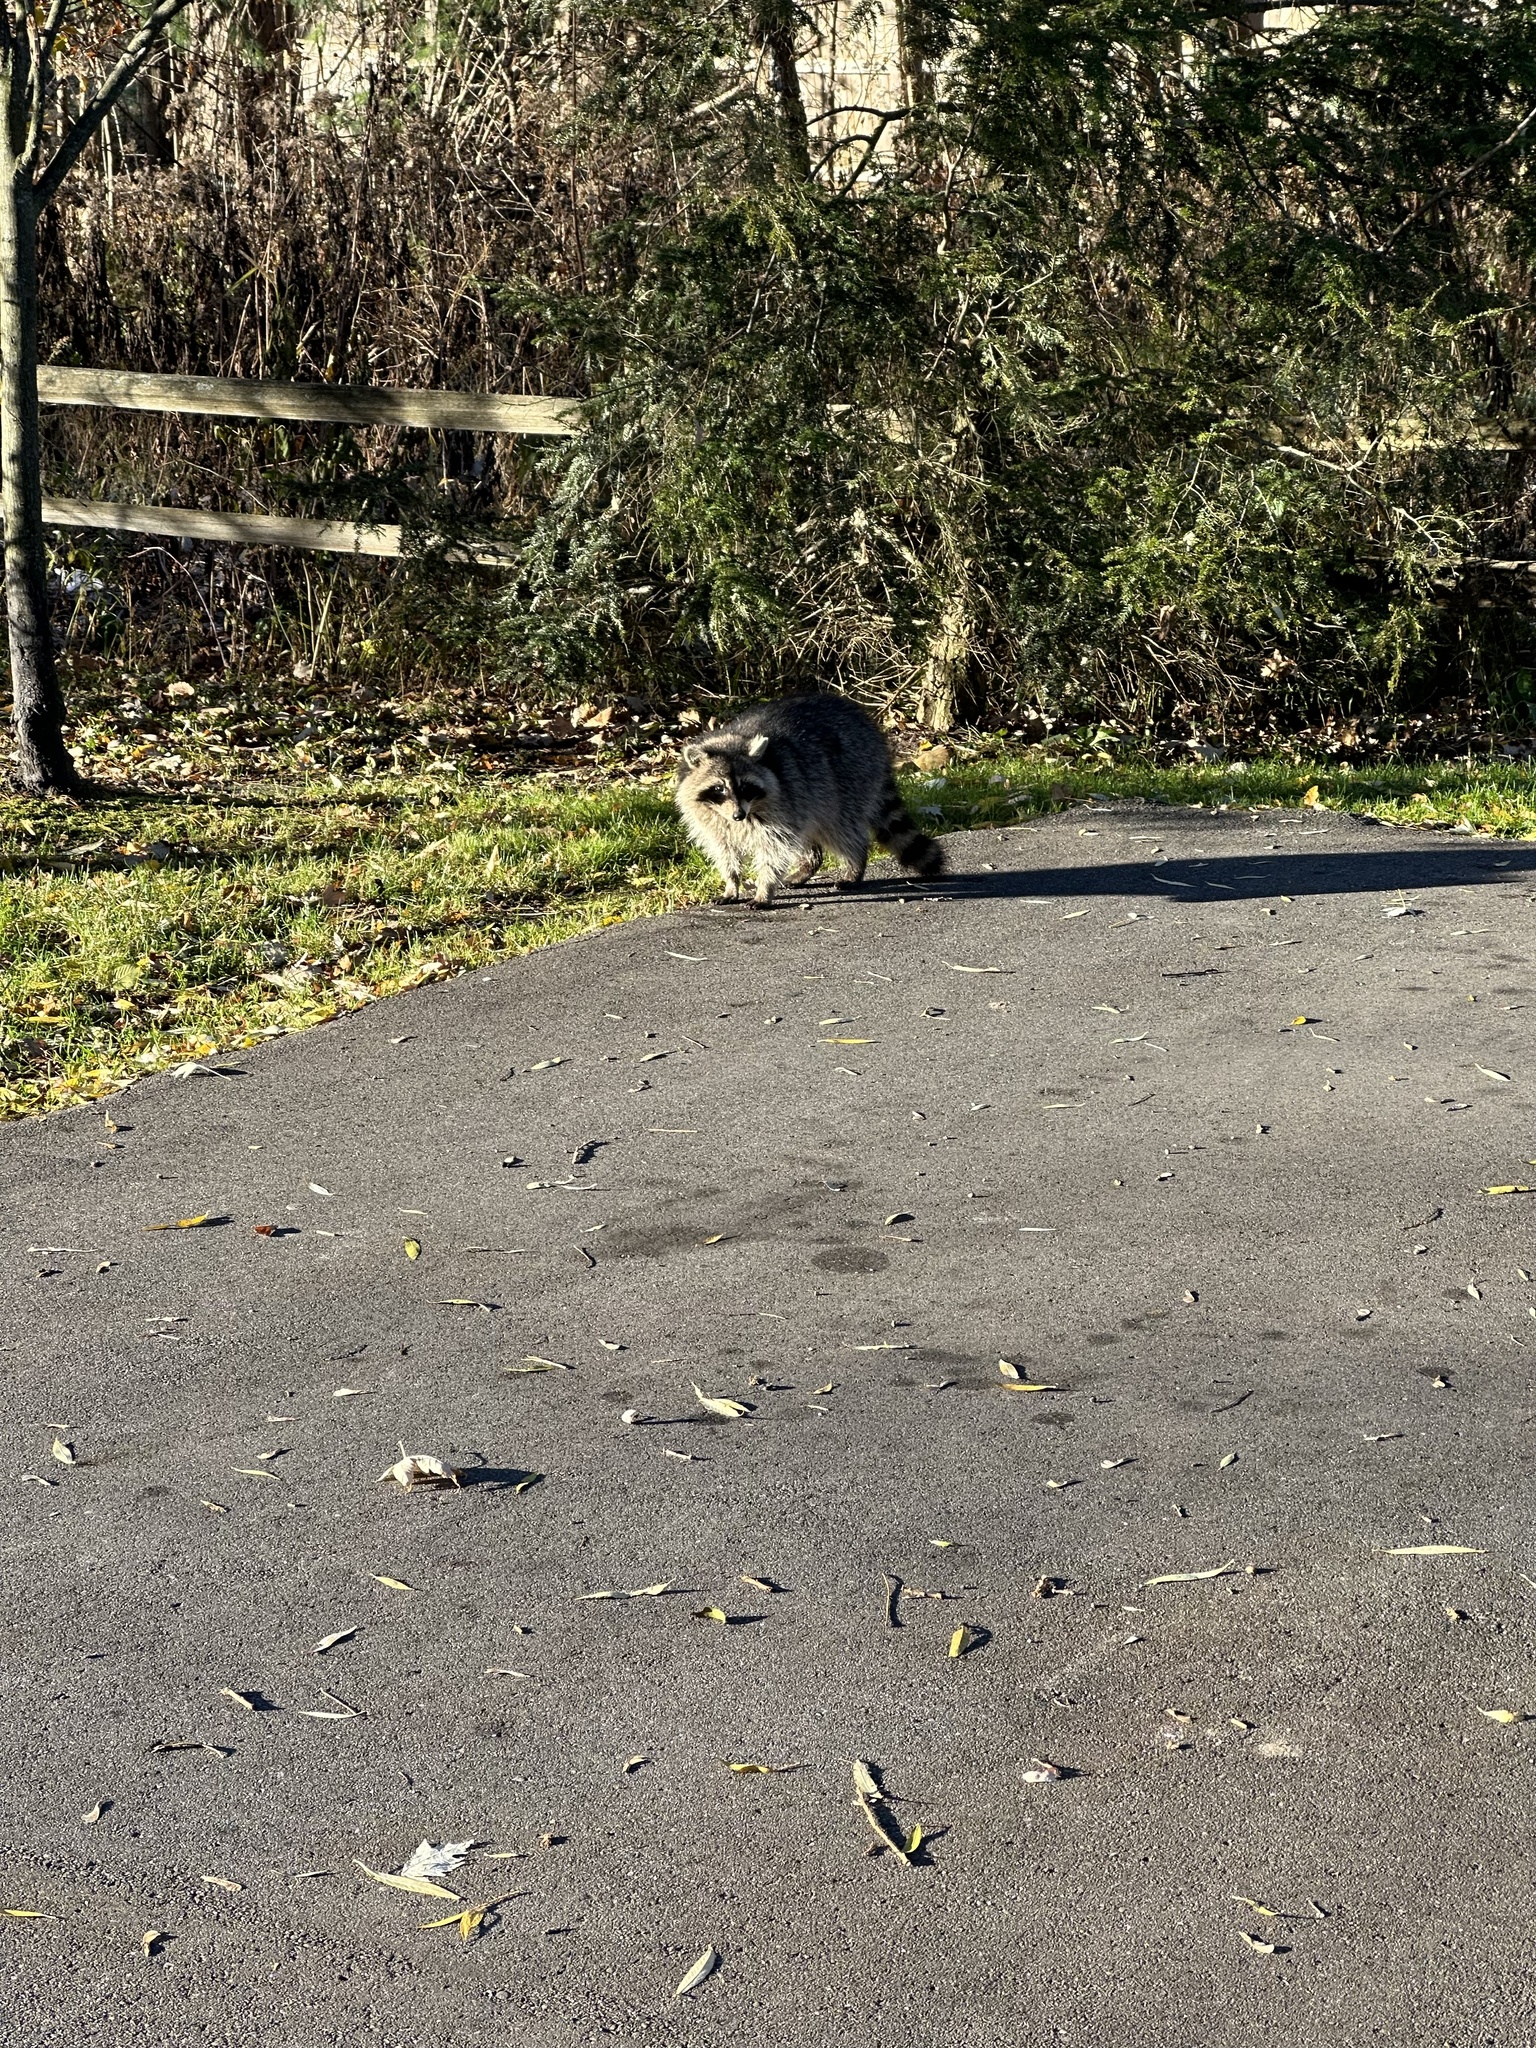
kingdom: Animalia
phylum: Chordata
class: Mammalia
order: Carnivora
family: Procyonidae
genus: Procyon
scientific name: Procyon lotor
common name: Raccoon
